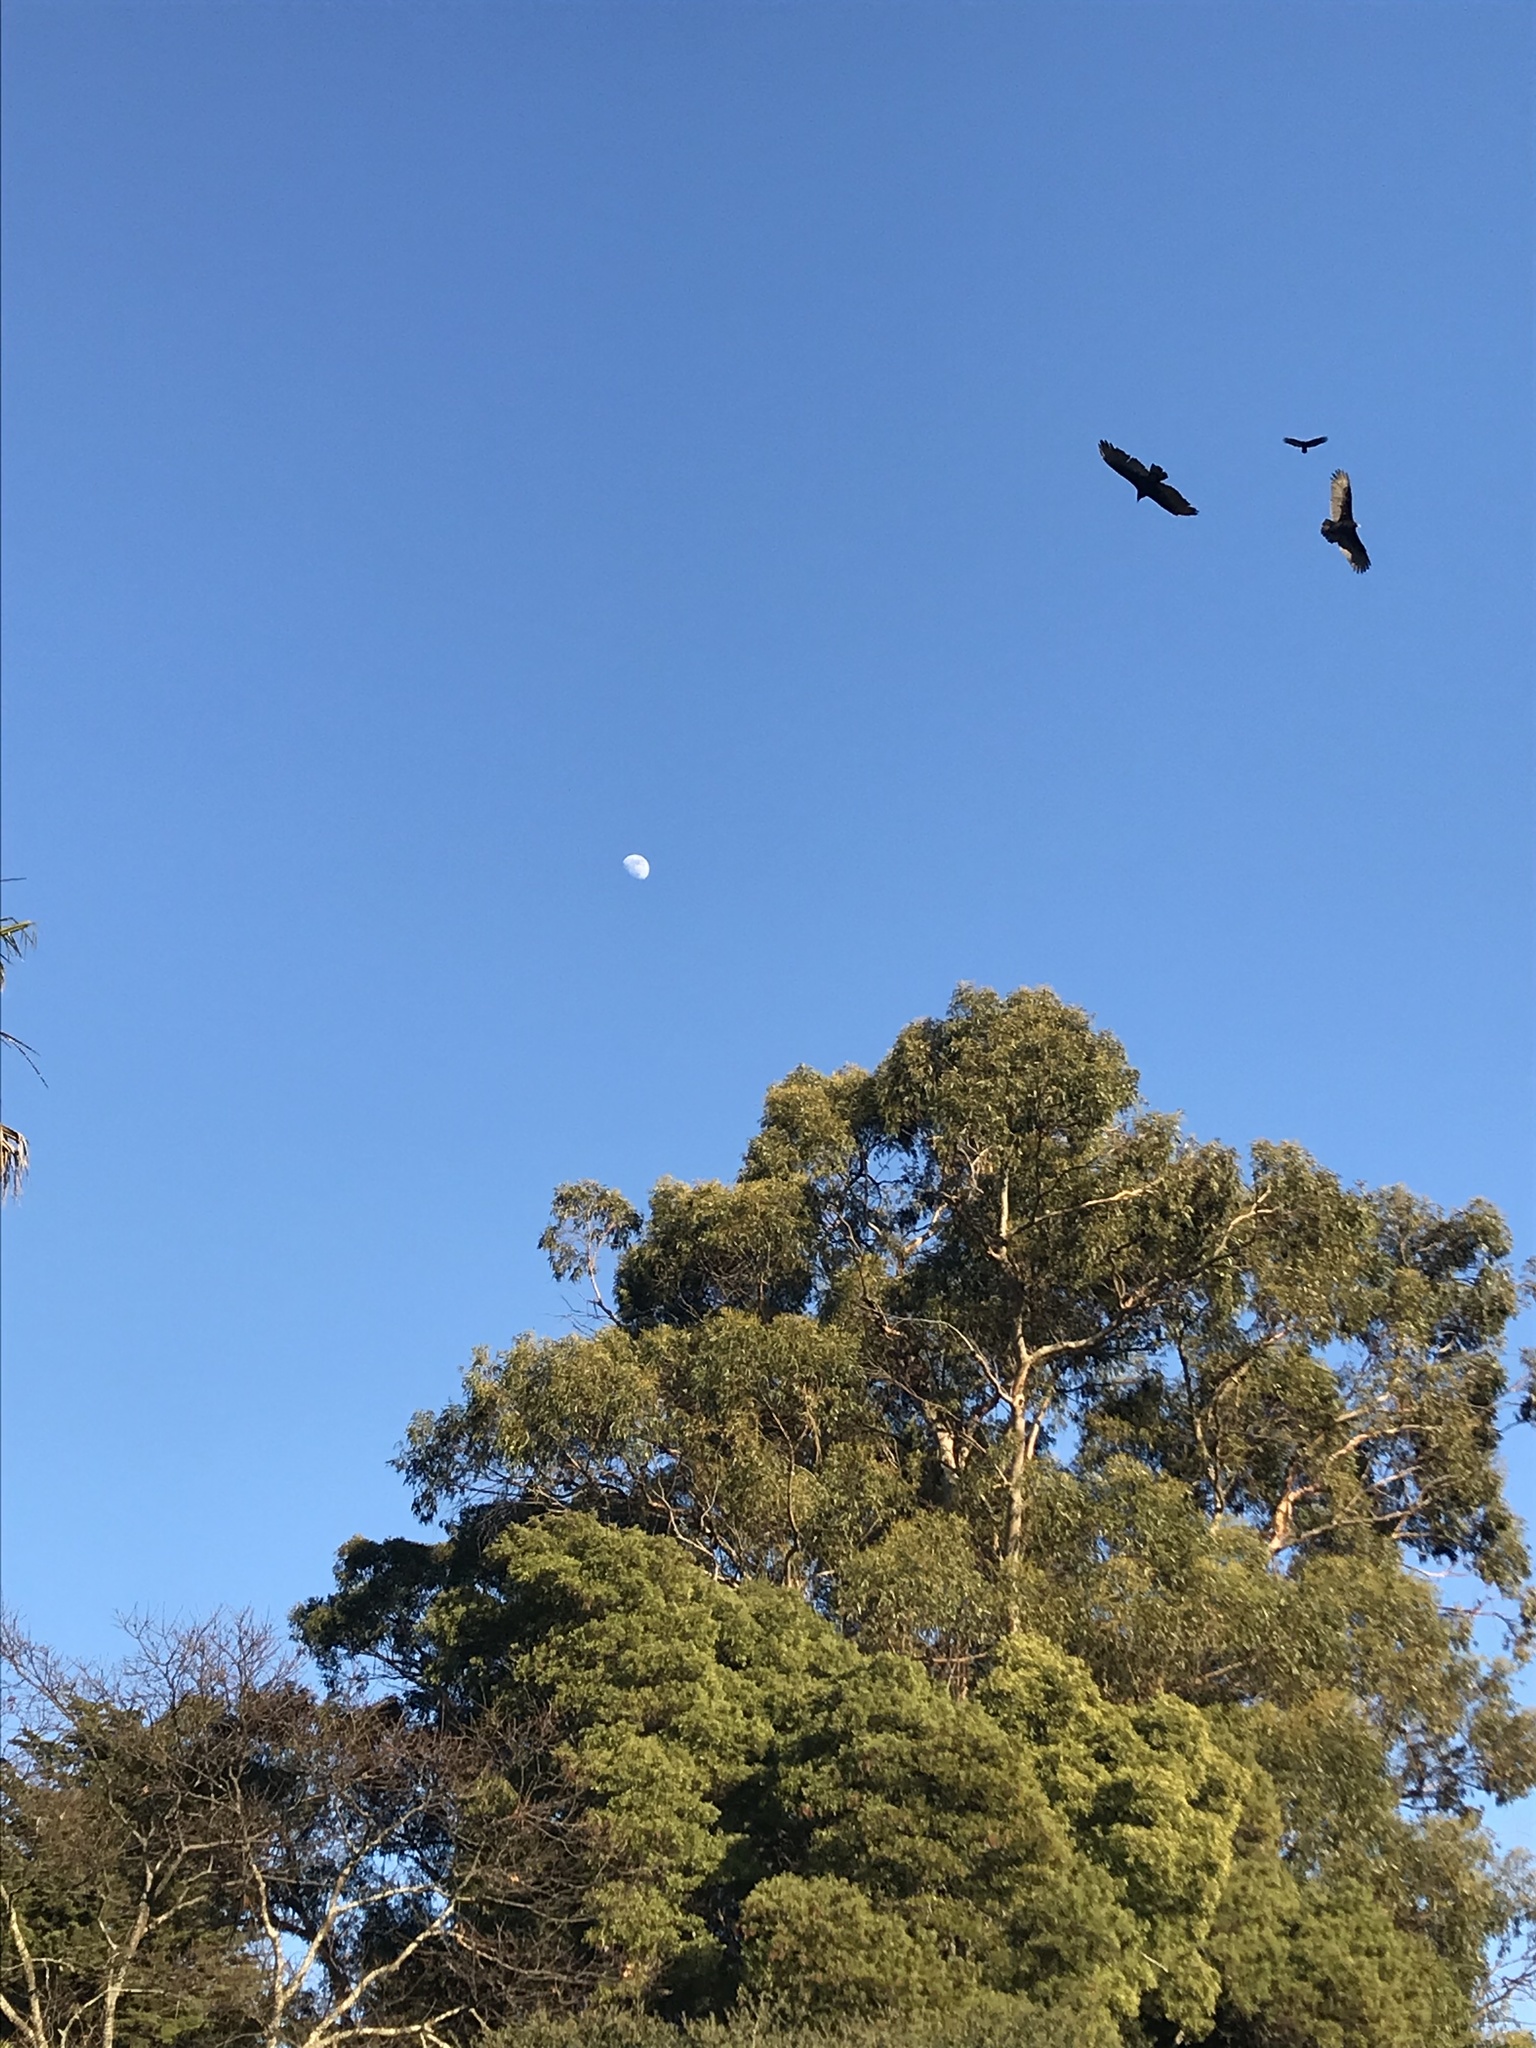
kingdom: Animalia
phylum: Chordata
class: Aves
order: Accipitriformes
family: Cathartidae
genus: Cathartes
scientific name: Cathartes aura
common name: Turkey vulture
